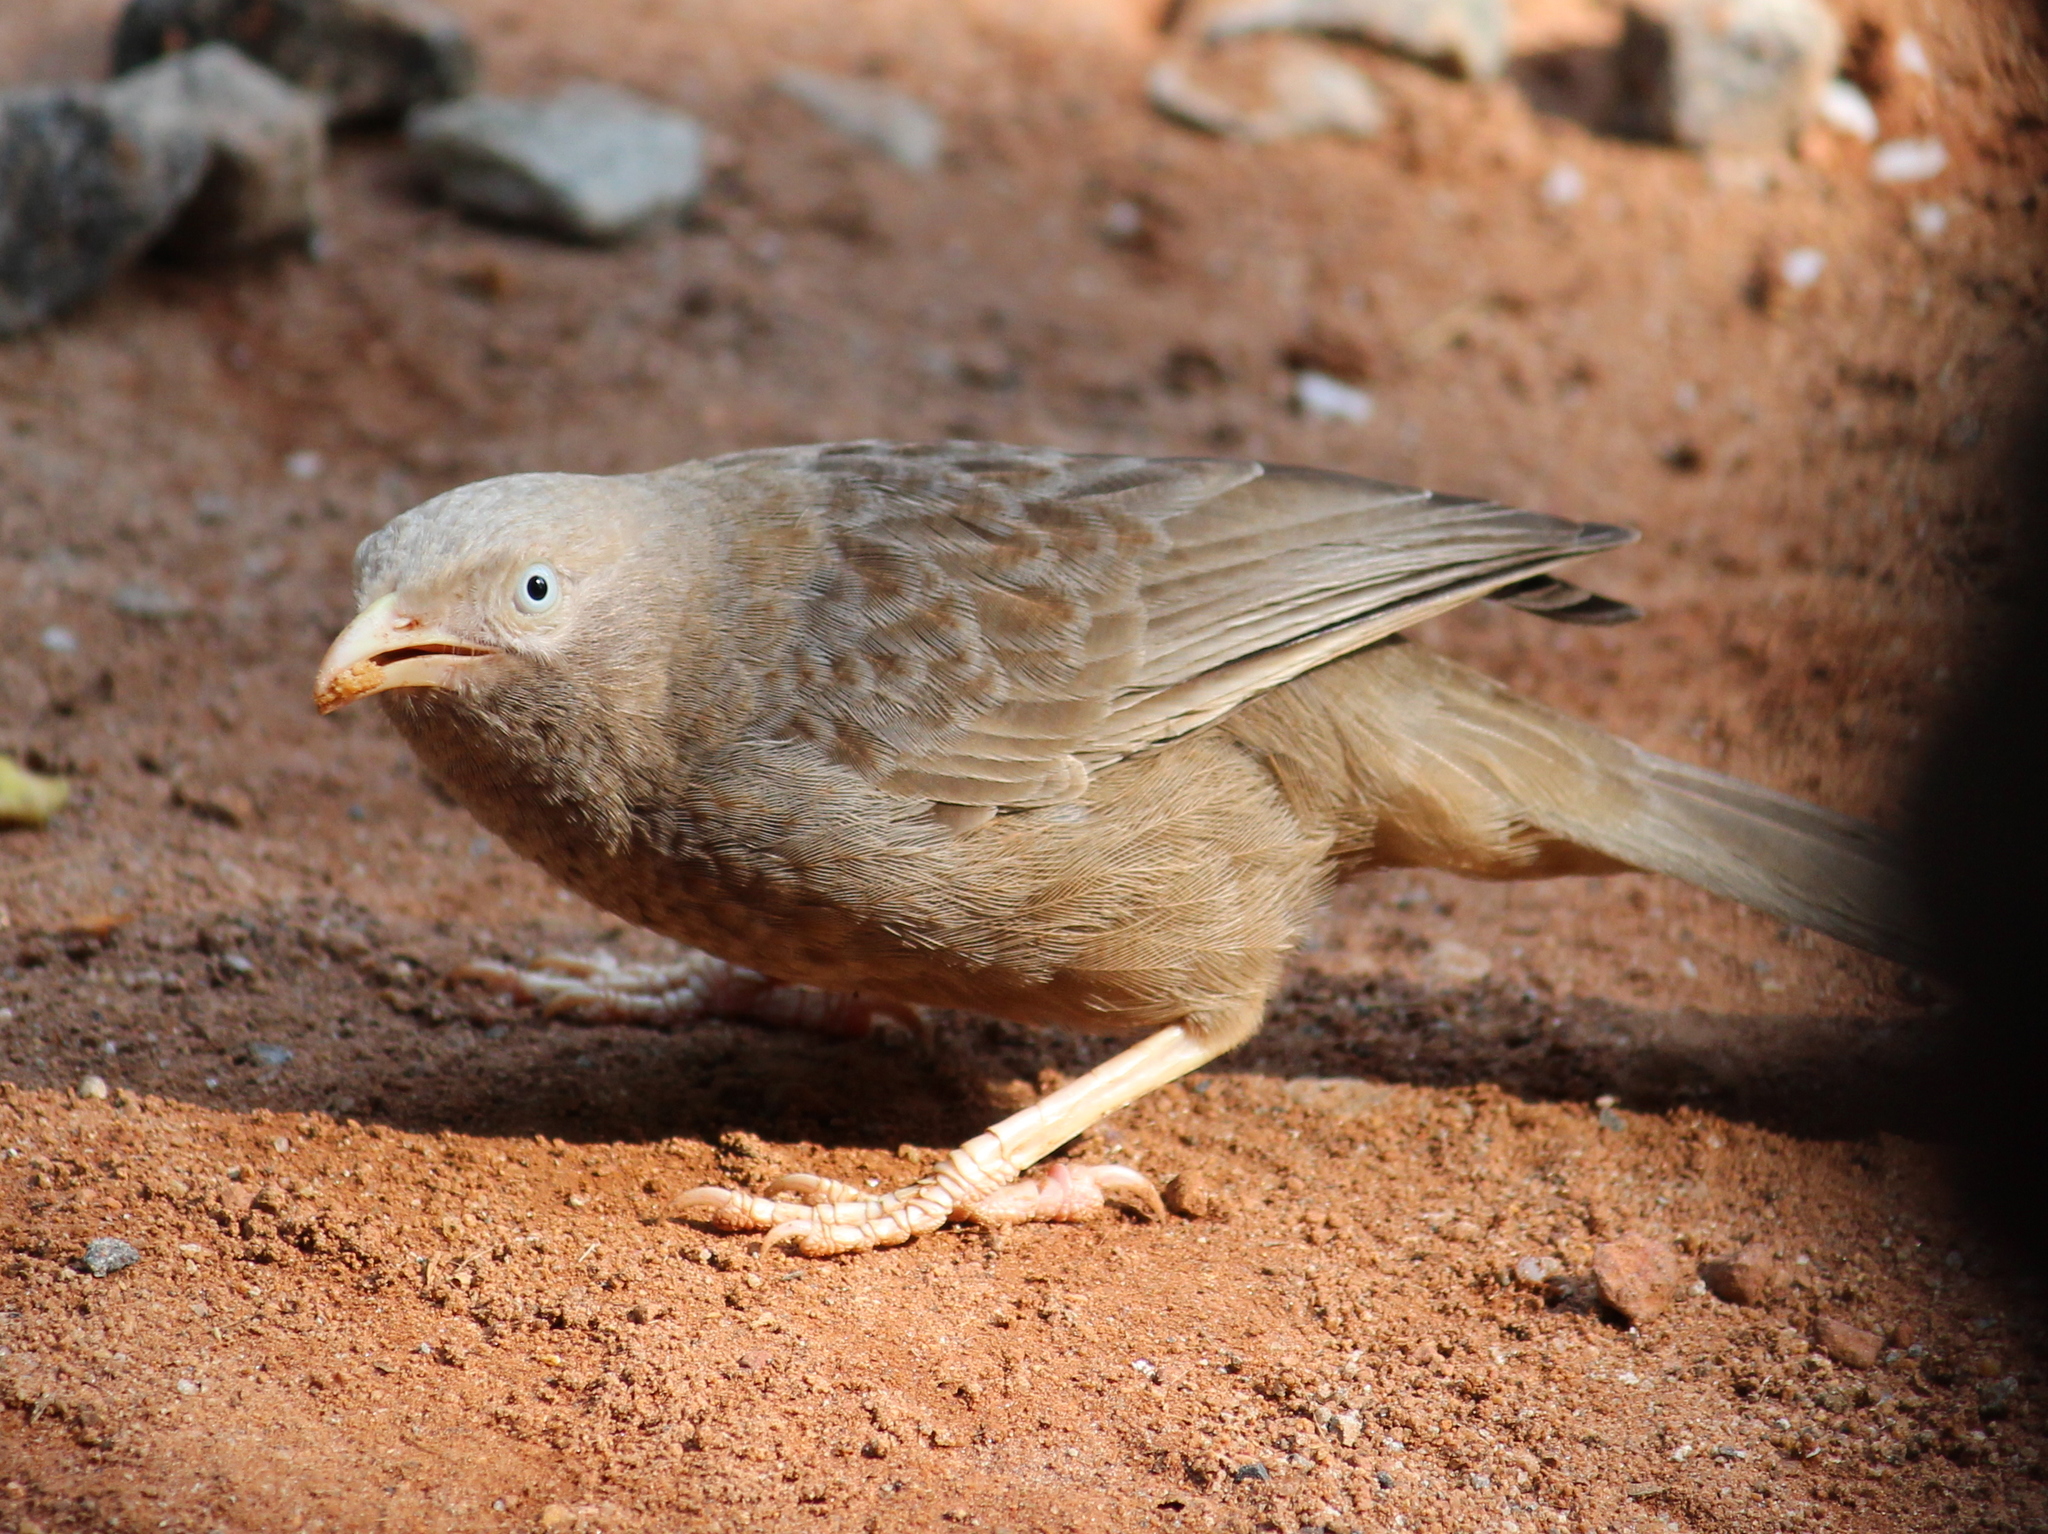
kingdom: Animalia
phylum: Chordata
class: Aves
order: Passeriformes
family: Leiothrichidae
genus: Turdoides
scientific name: Turdoides affinis
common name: Yellow-billed babbler
